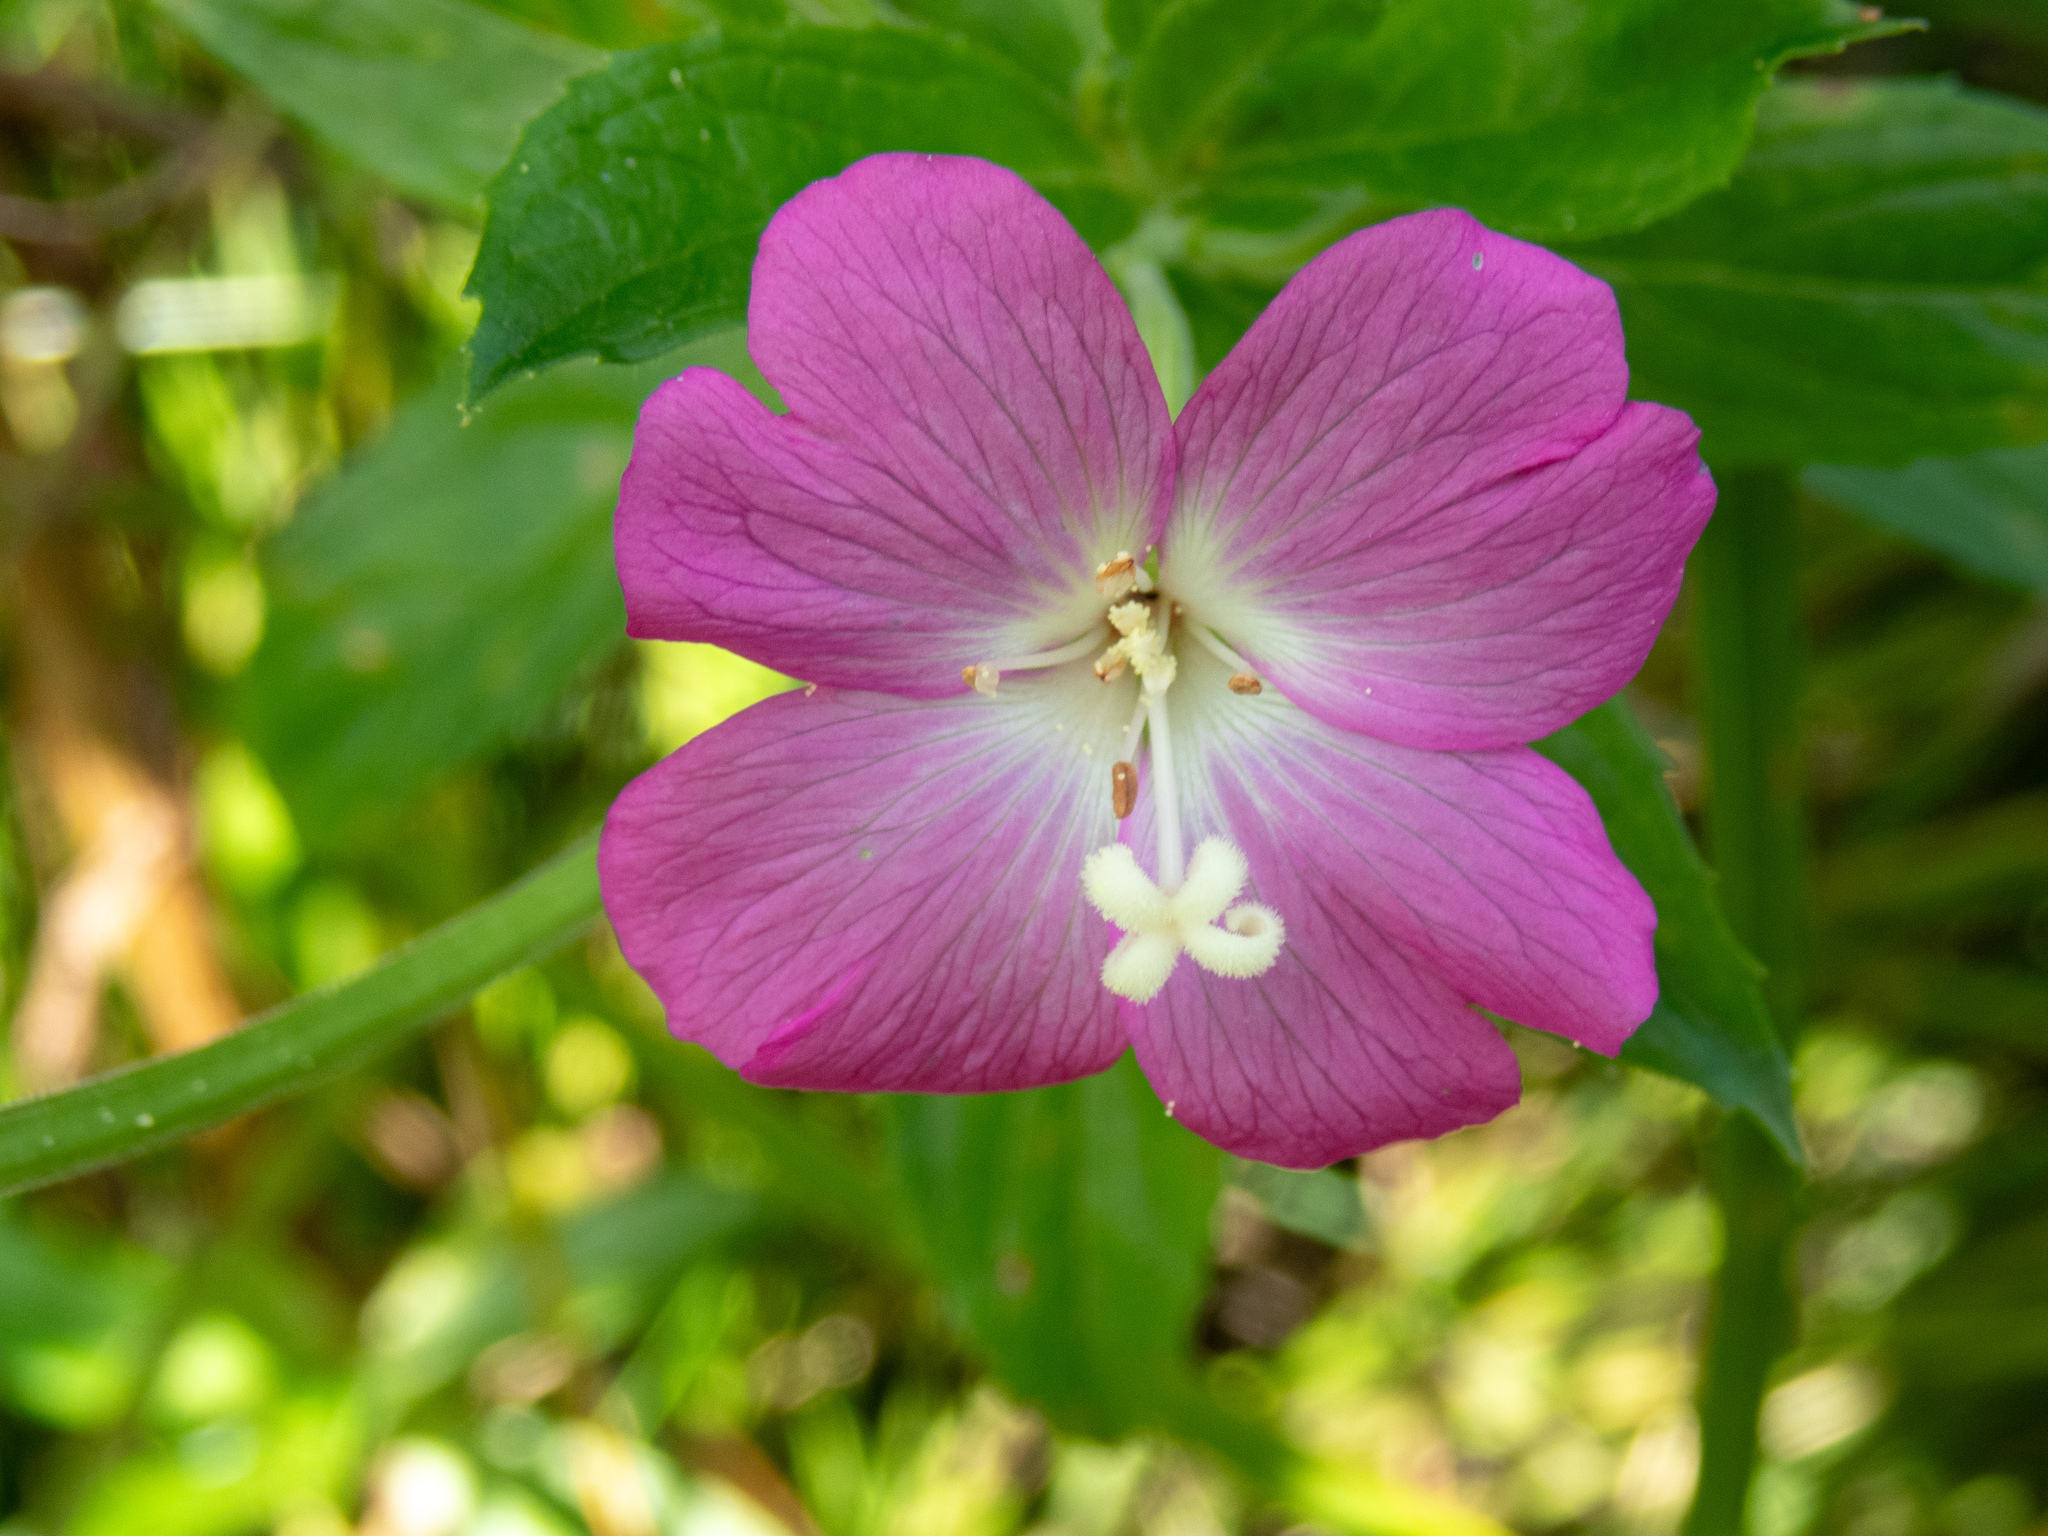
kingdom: Plantae
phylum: Tracheophyta
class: Magnoliopsida
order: Myrtales
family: Onagraceae
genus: Epilobium
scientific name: Epilobium hirsutum
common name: Great willowherb
